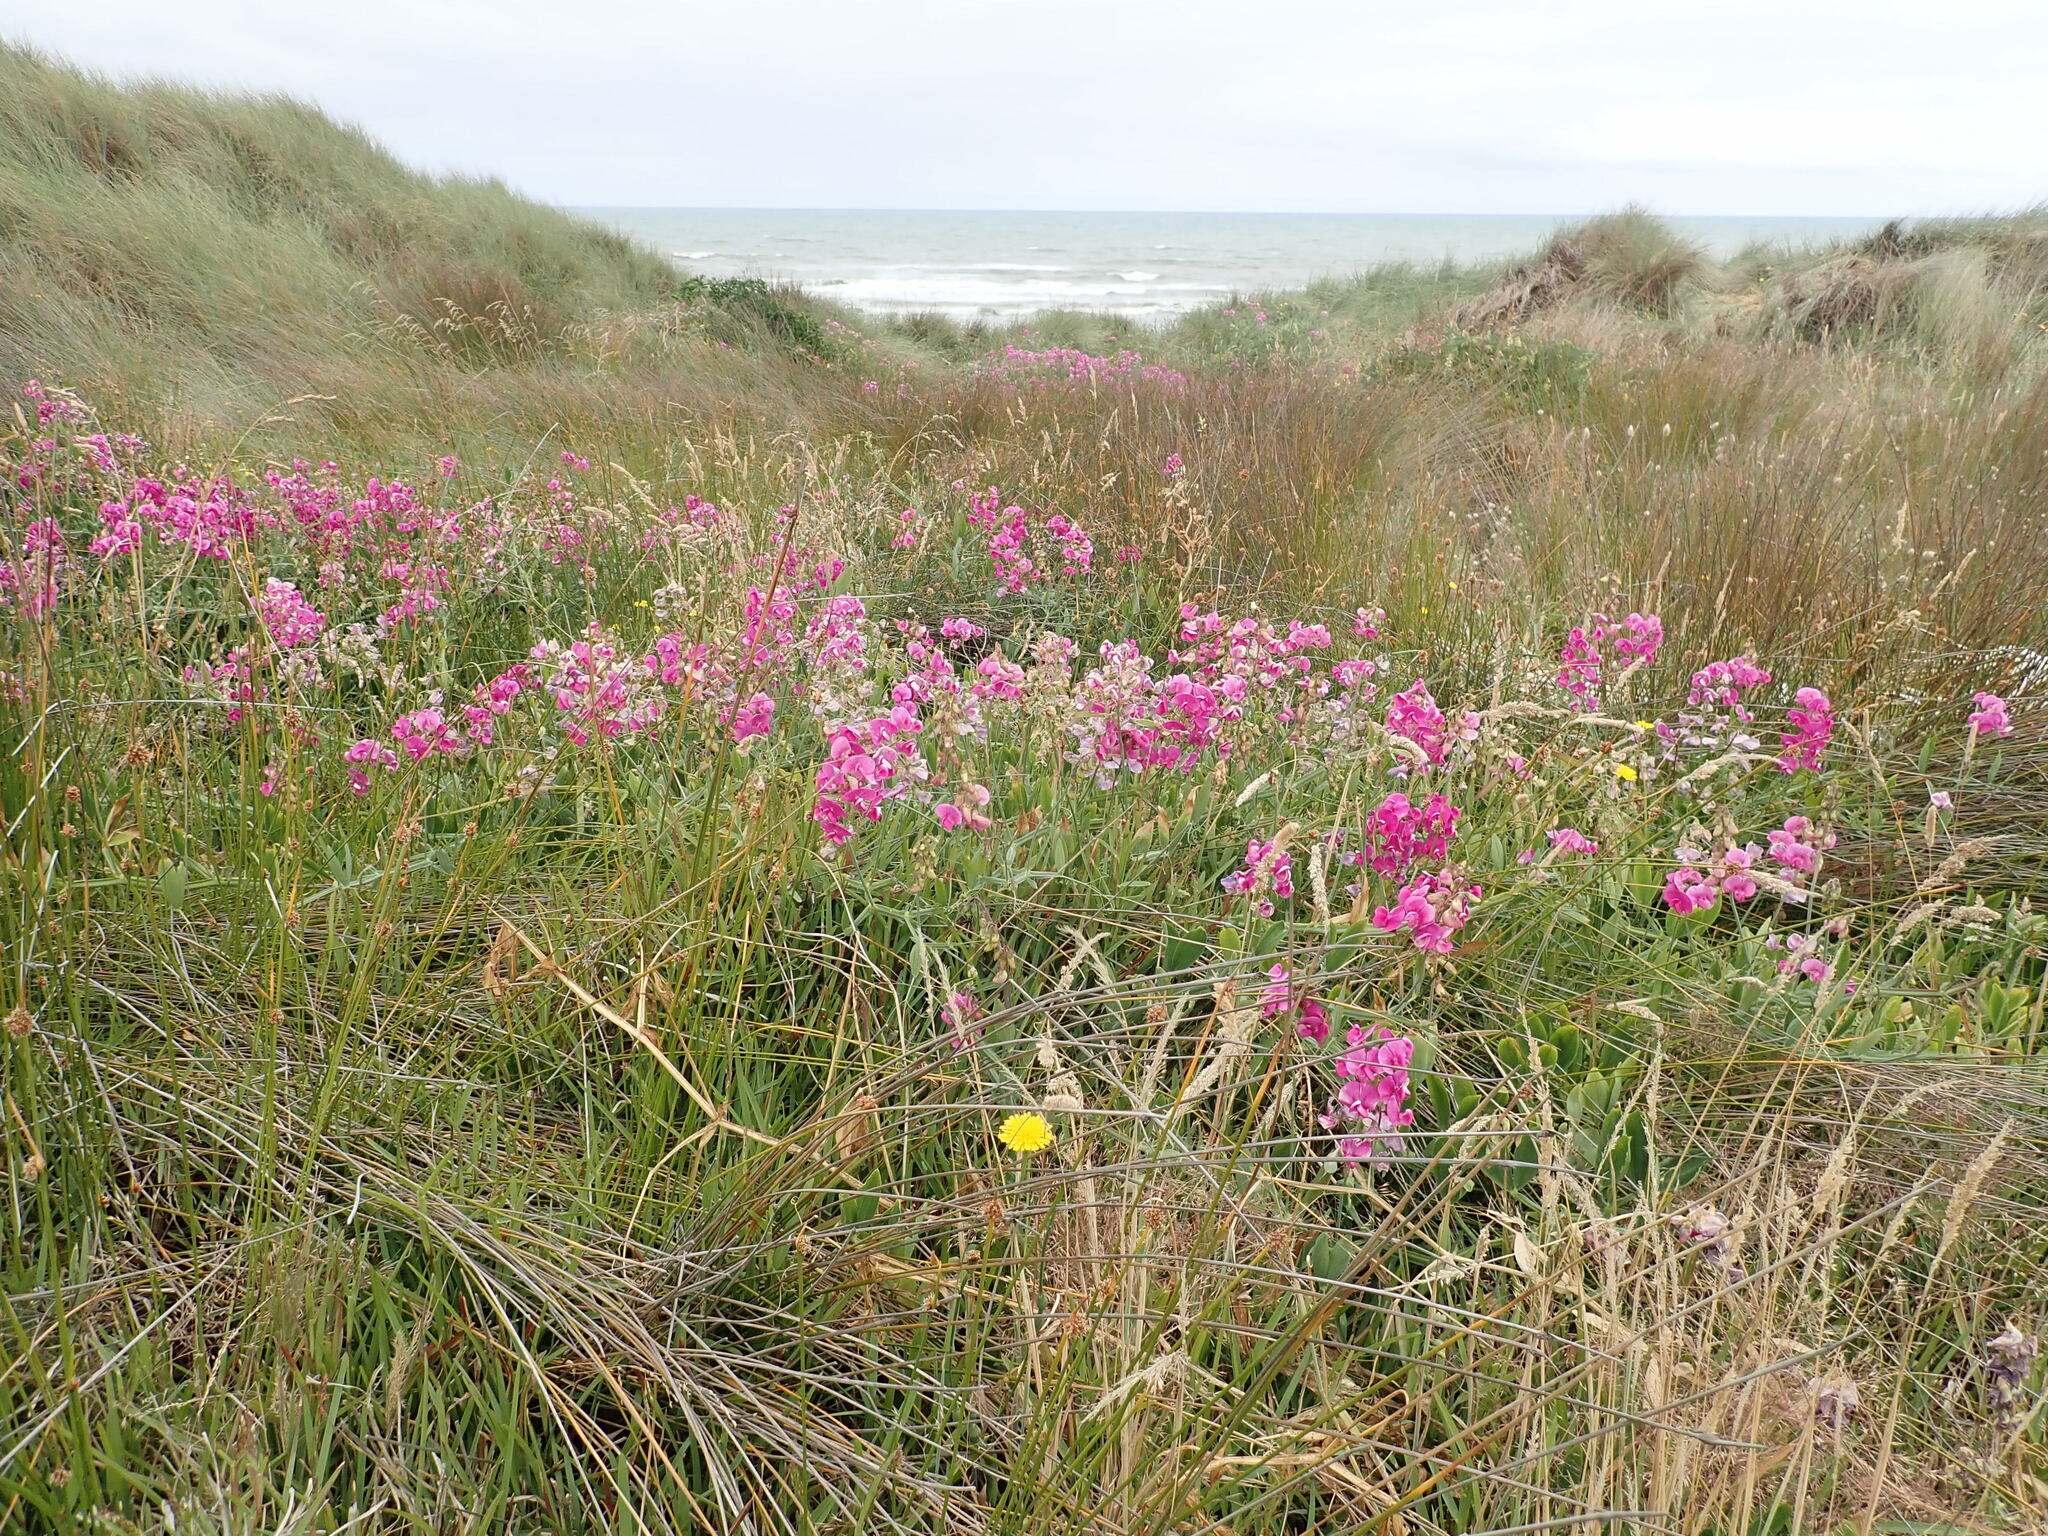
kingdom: Plantae
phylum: Tracheophyta
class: Magnoliopsida
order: Fabales
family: Fabaceae
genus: Lathyrus
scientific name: Lathyrus latifolius
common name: Perennial pea
